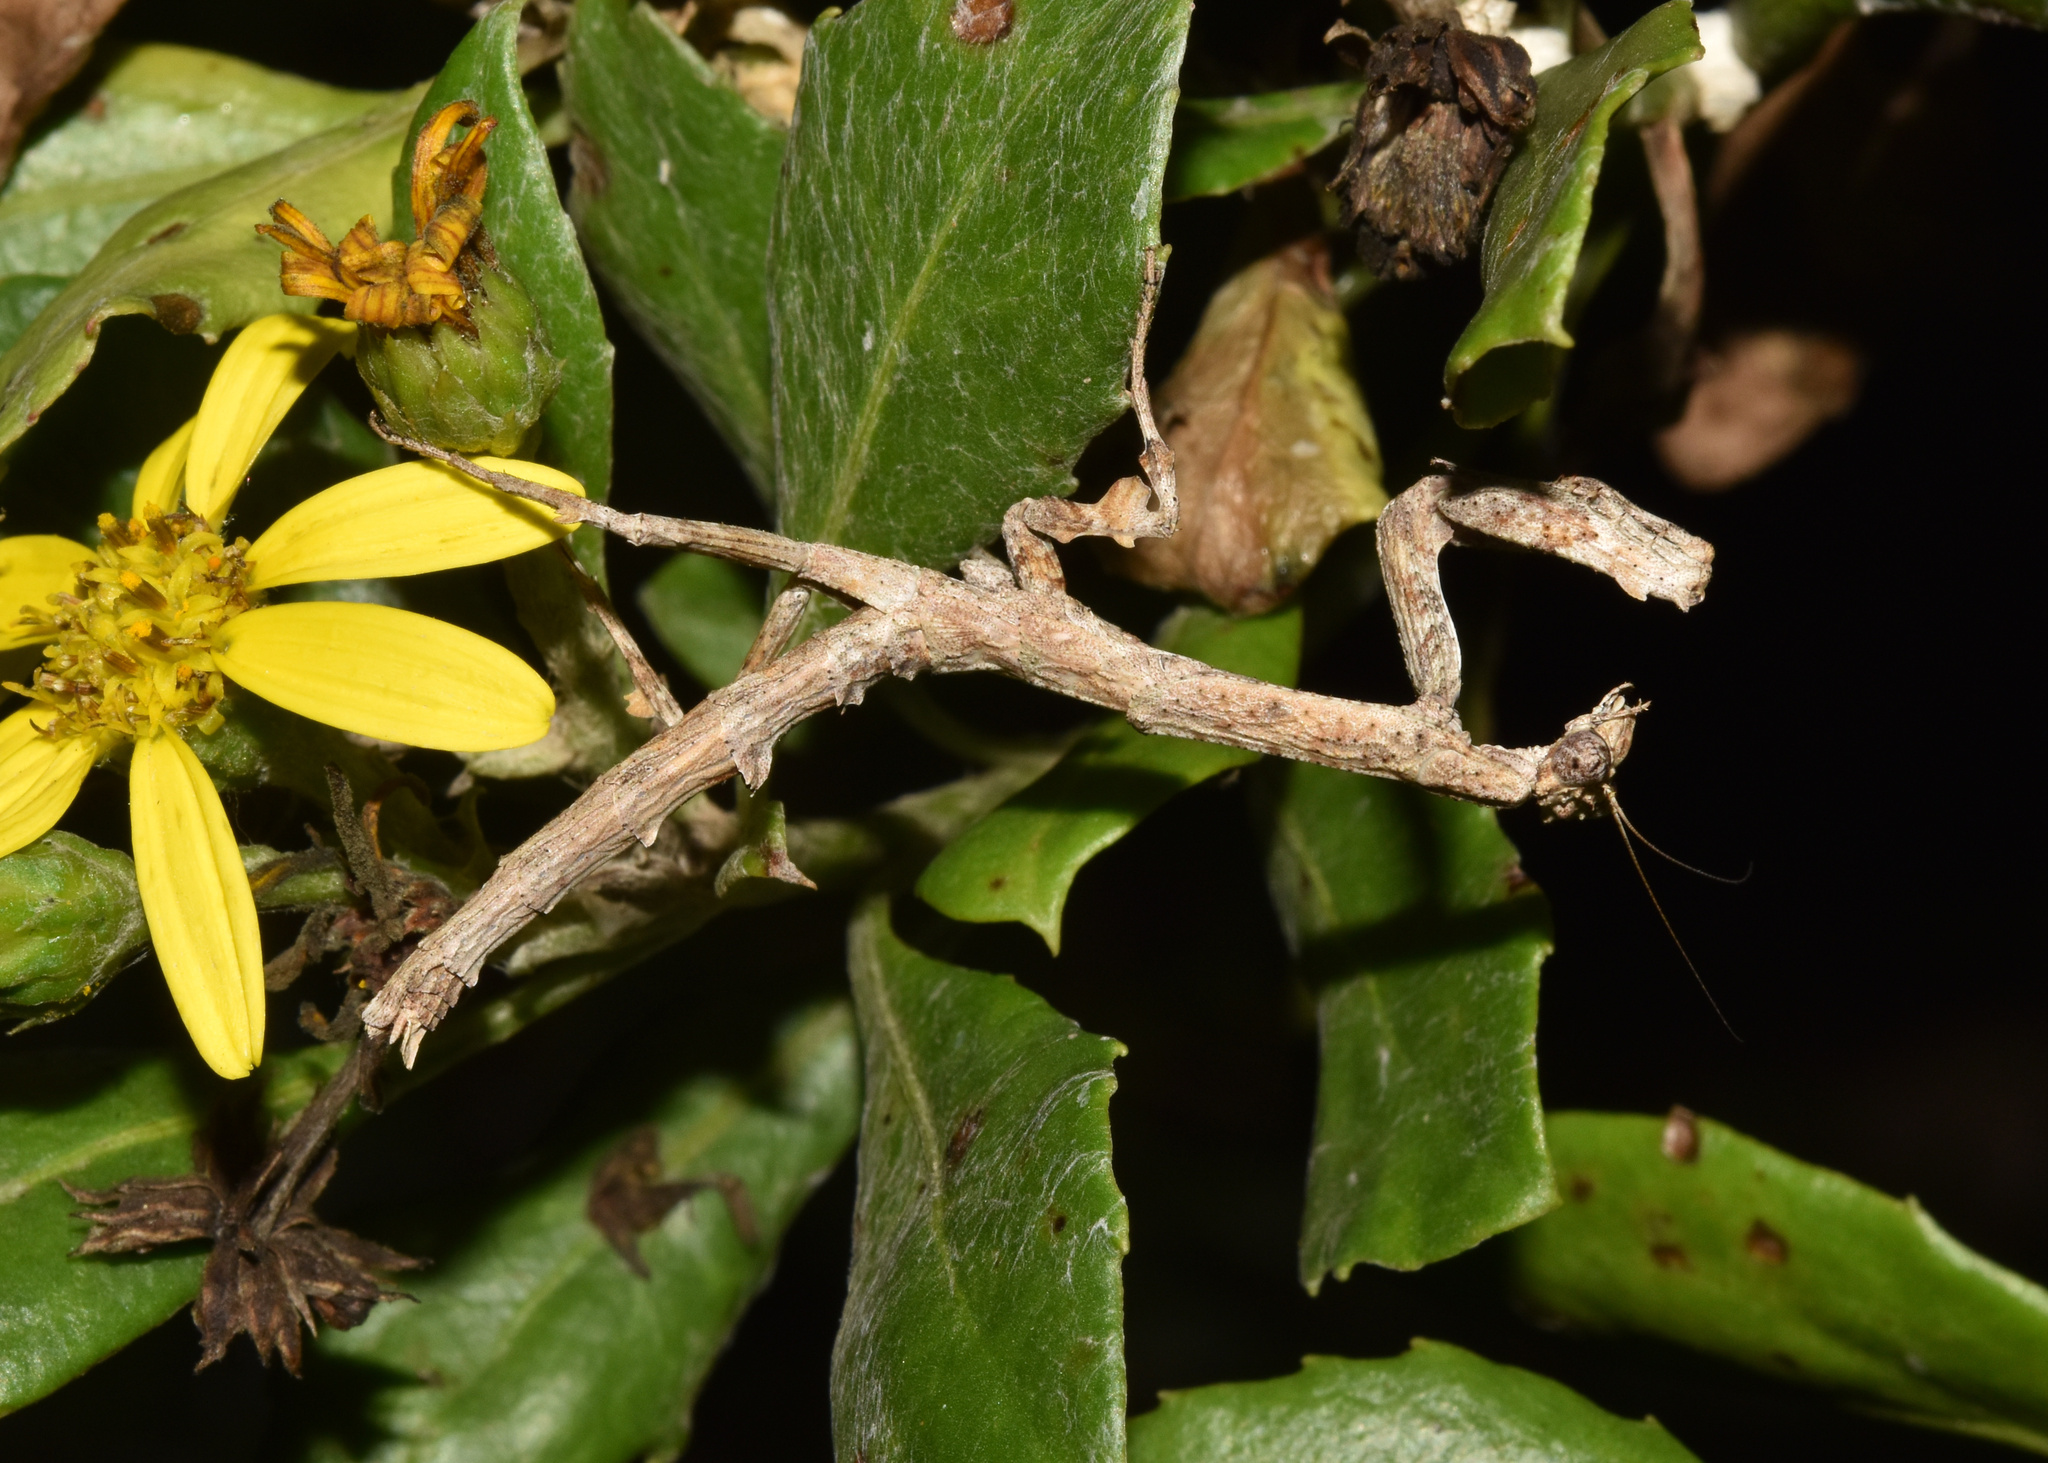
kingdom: Animalia
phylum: Arthropoda
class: Insecta
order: Mantodea
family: Deroplatyidae
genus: Popa
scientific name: Popa spurca
